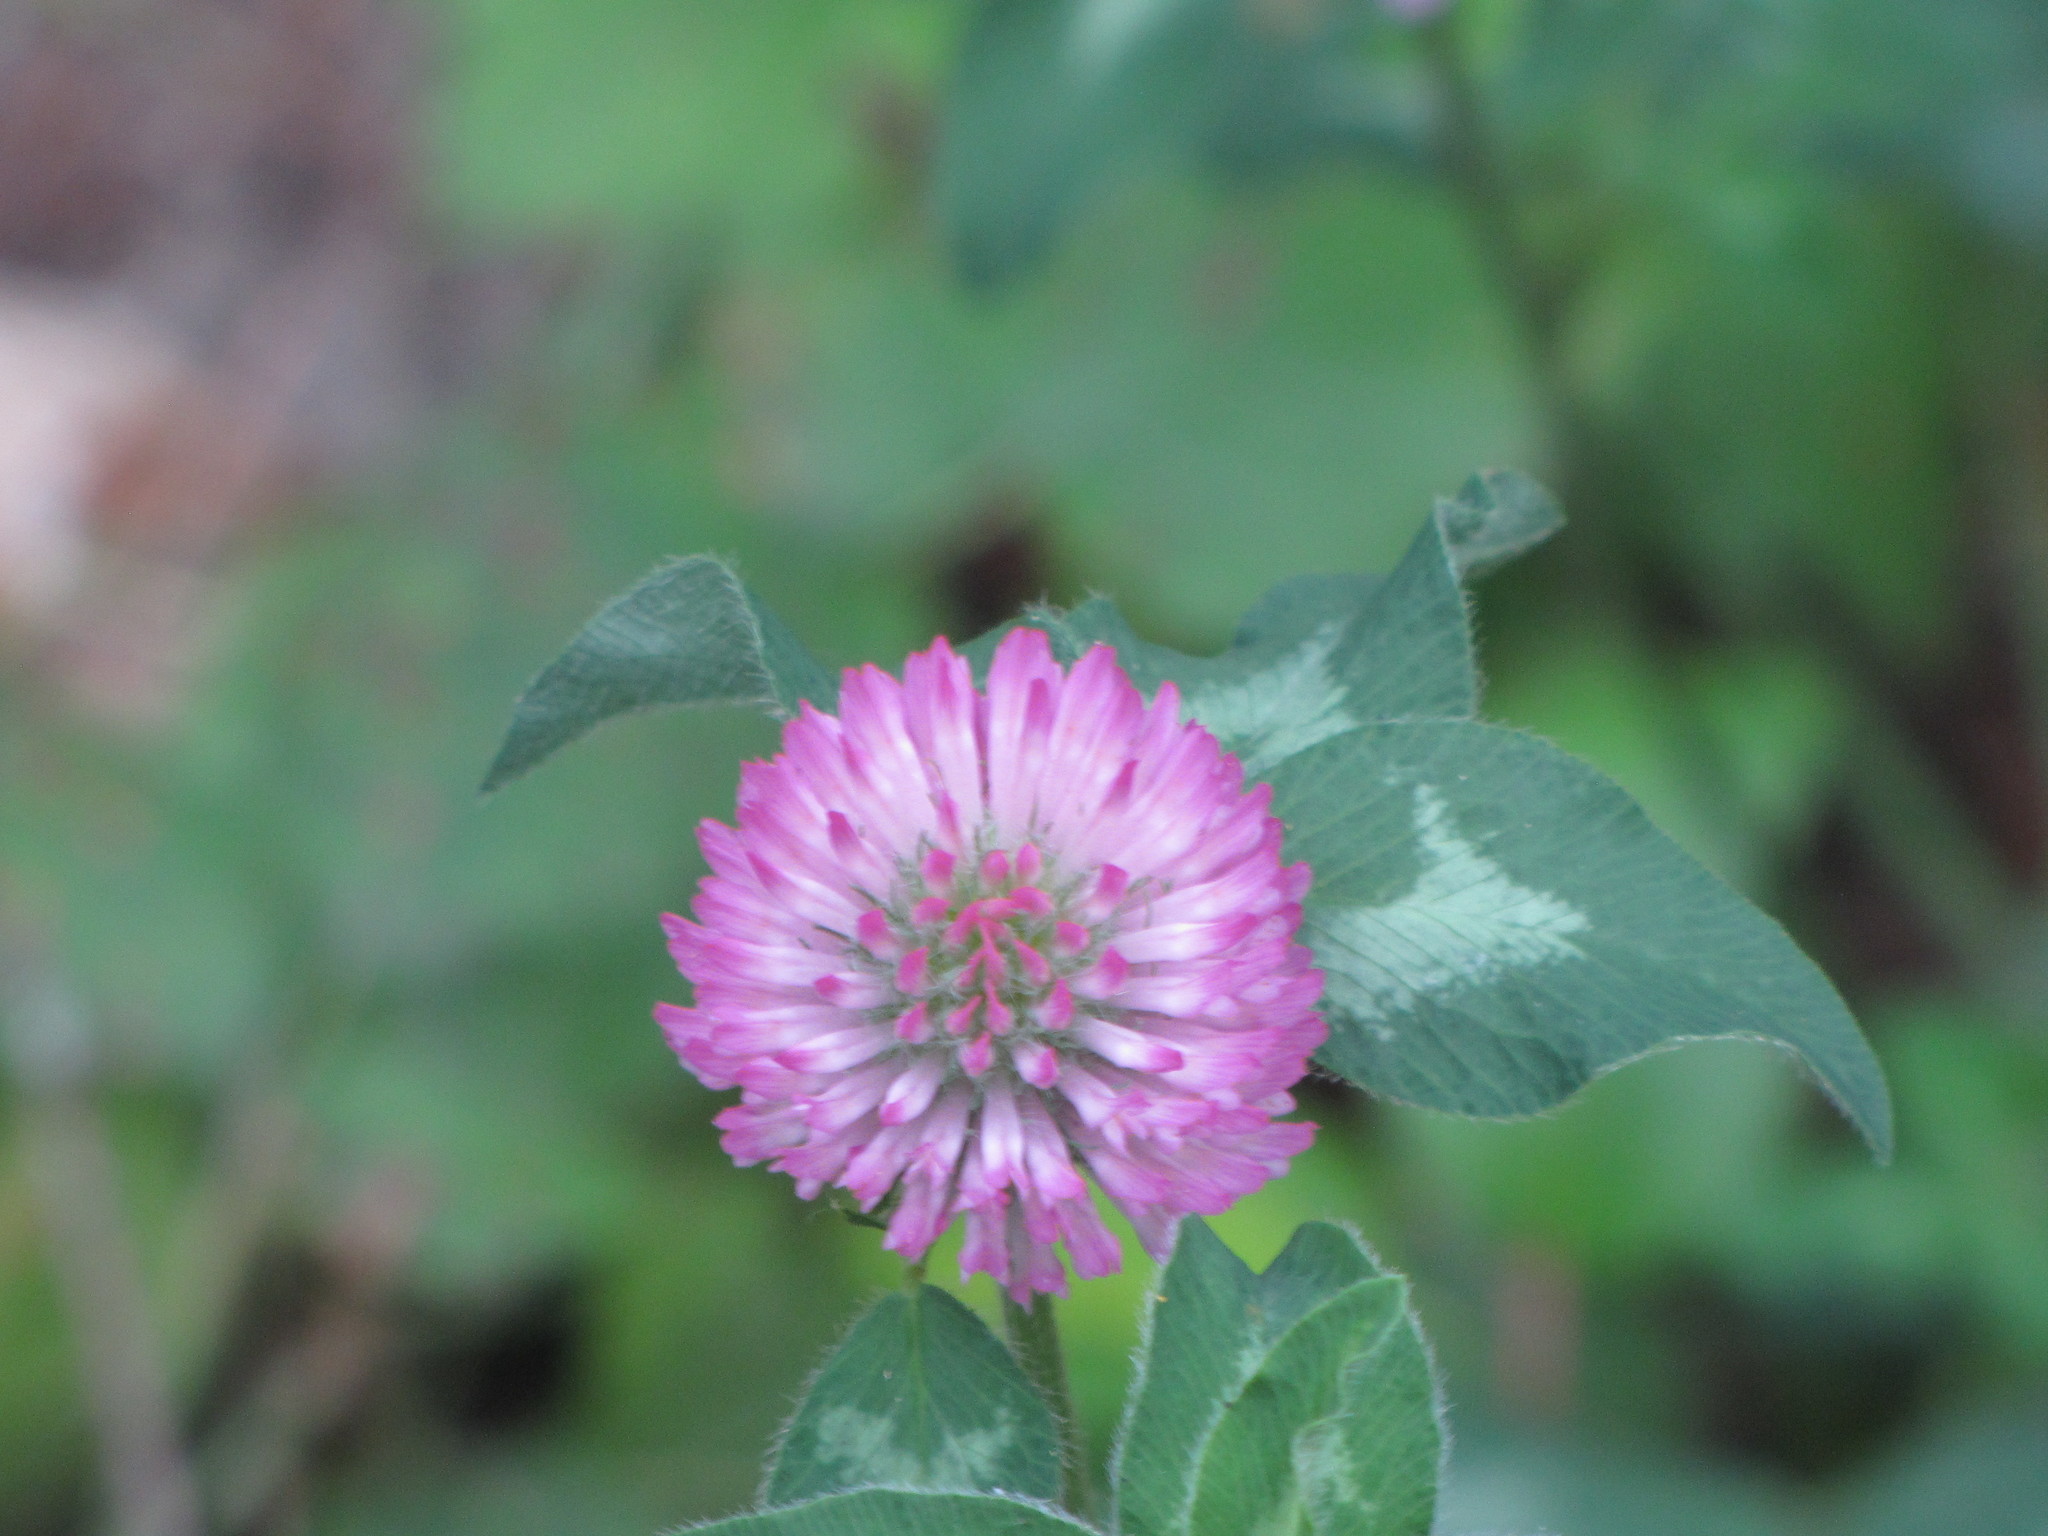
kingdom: Plantae
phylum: Tracheophyta
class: Magnoliopsida
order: Fabales
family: Fabaceae
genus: Trifolium
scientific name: Trifolium pratense
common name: Red clover
